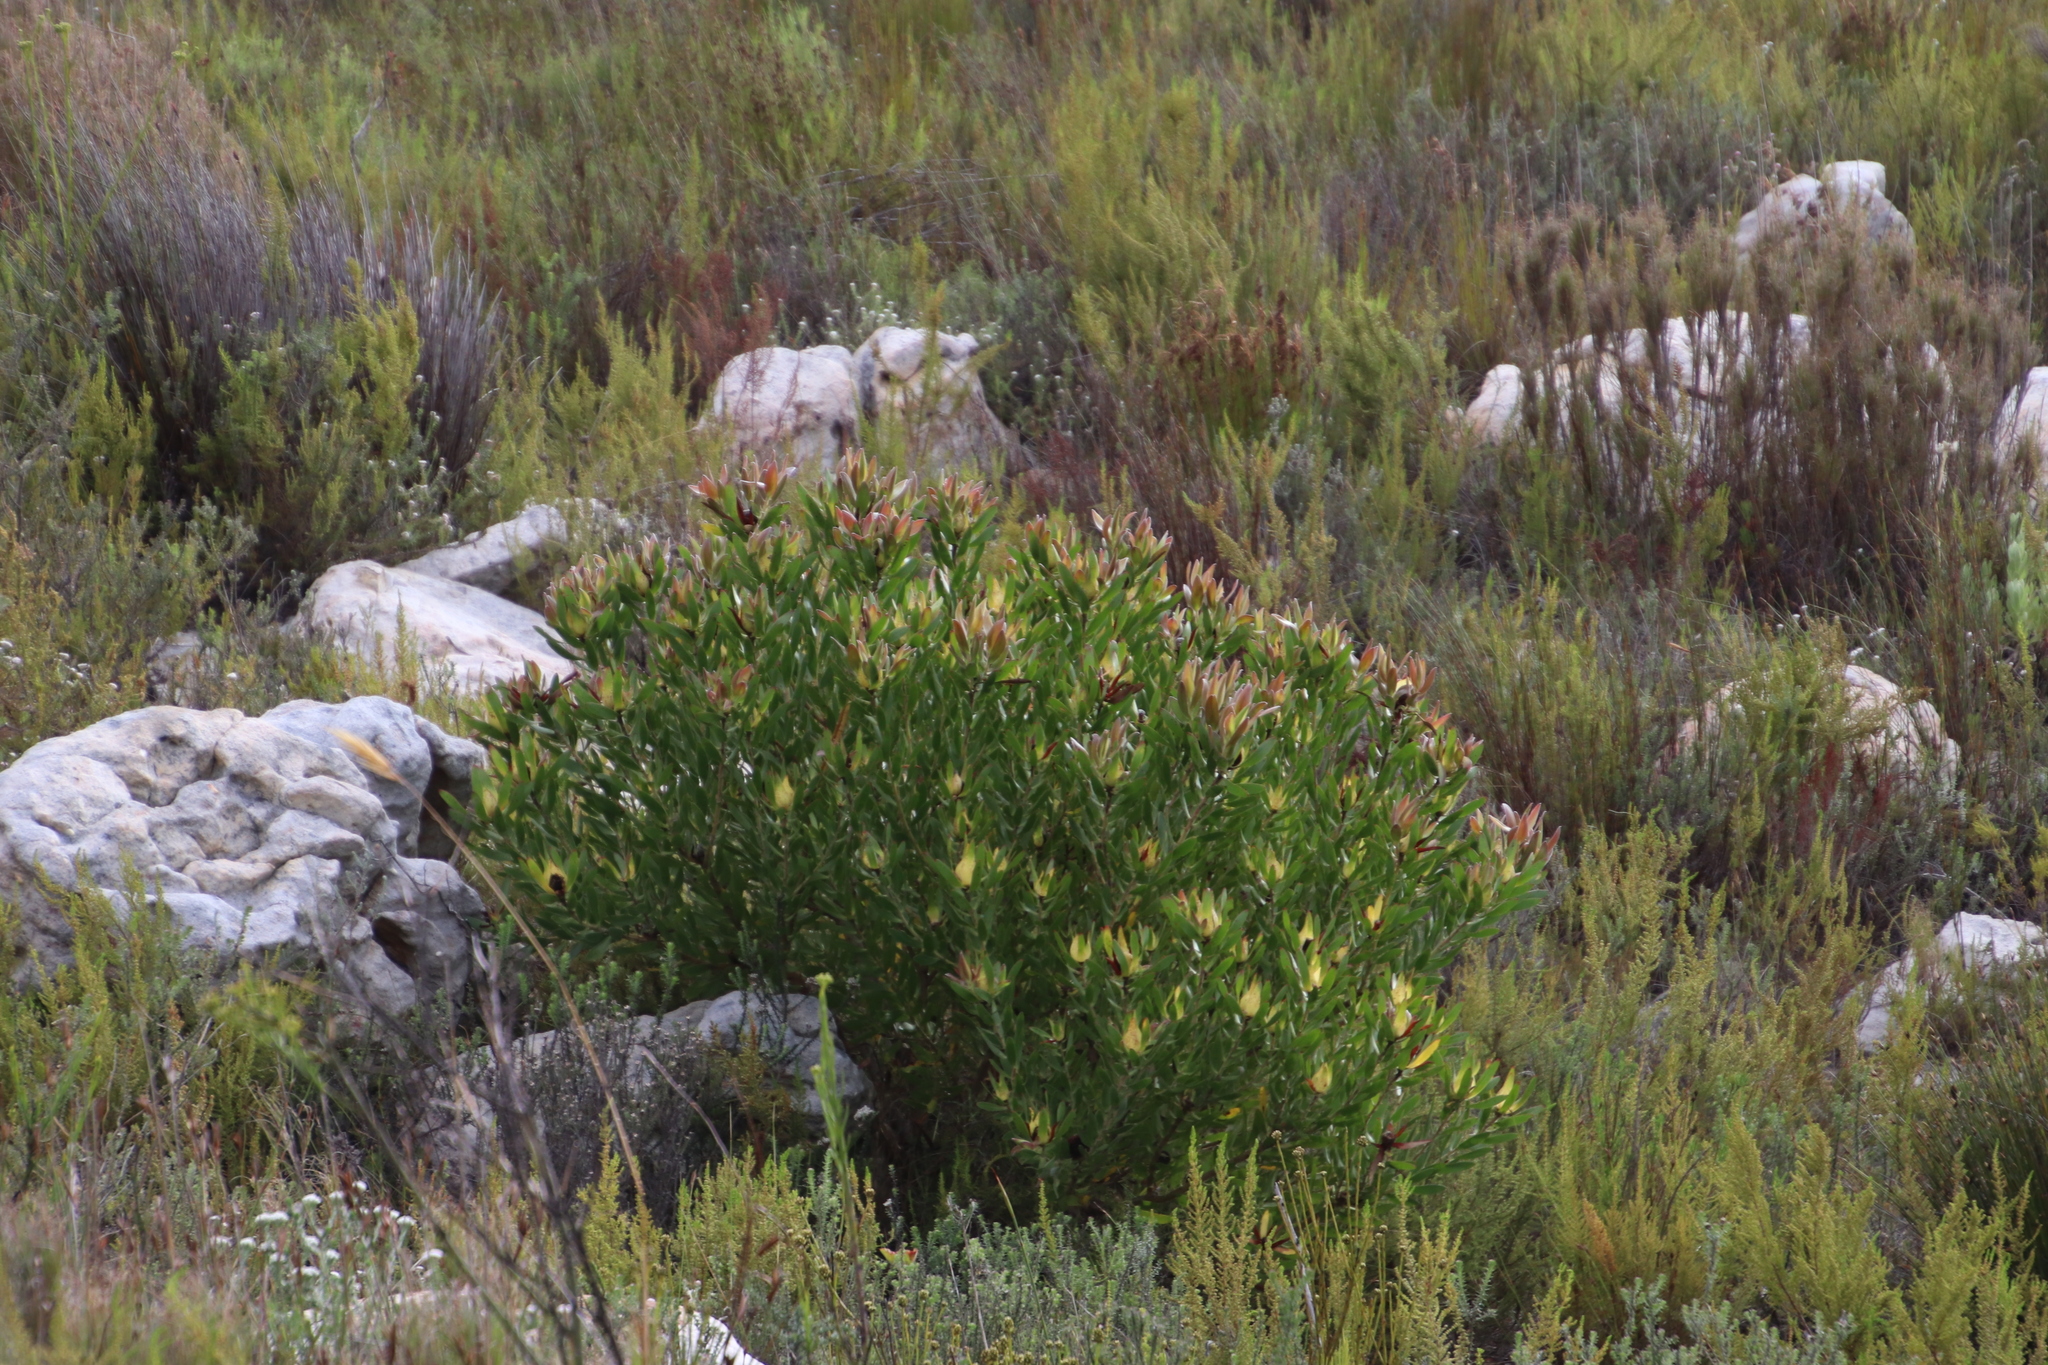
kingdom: Plantae
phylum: Tracheophyta
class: Magnoliopsida
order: Proteales
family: Proteaceae
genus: Leucadendron
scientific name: Leucadendron laureolum
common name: Golden sunshinebush
